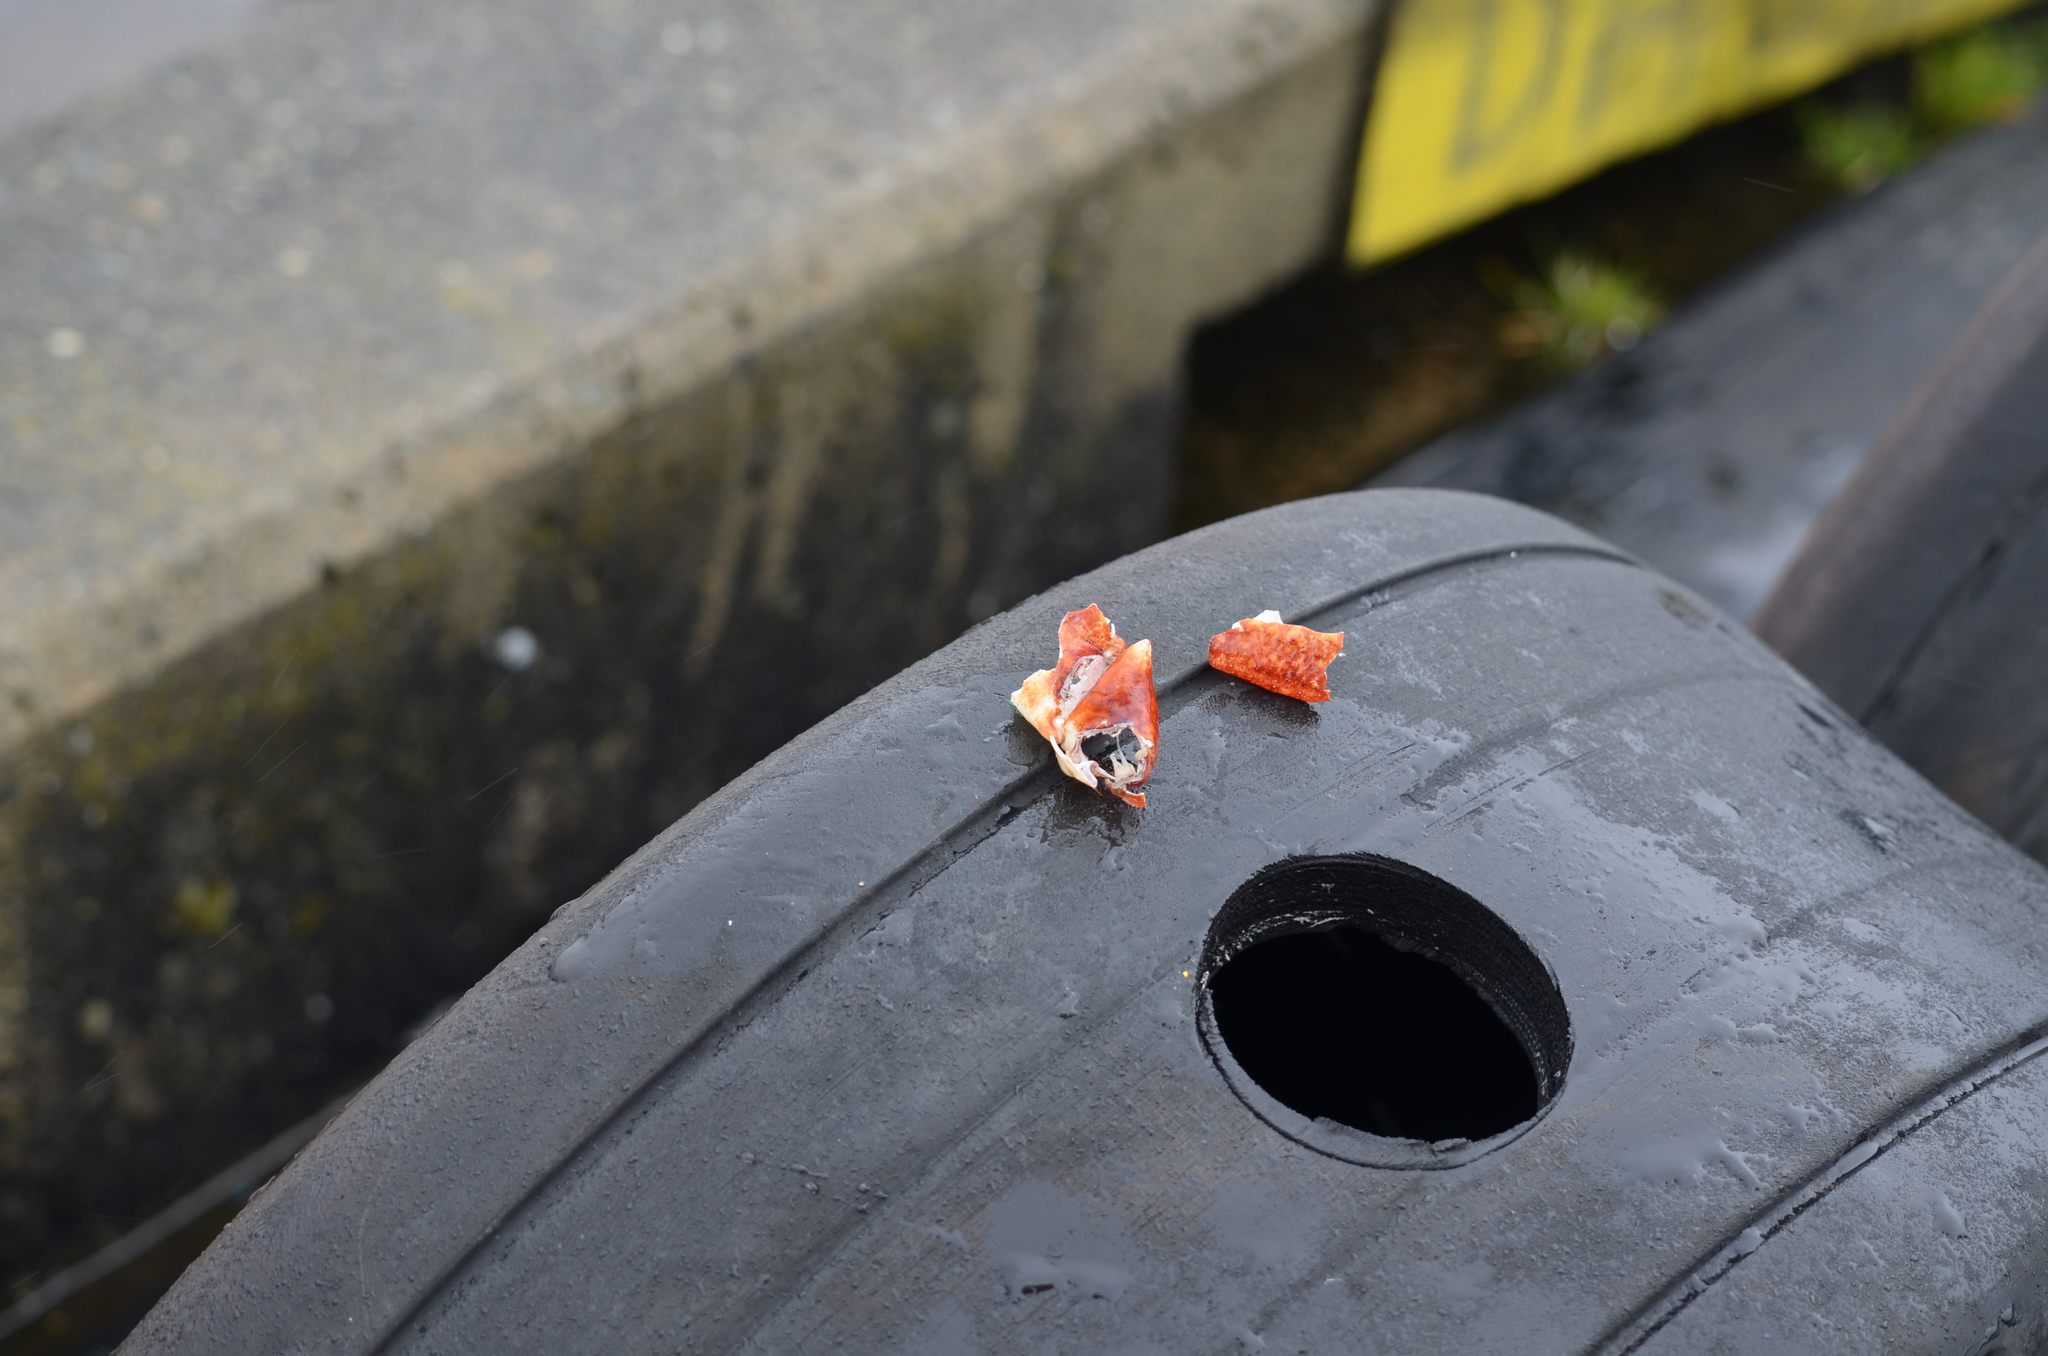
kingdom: Animalia
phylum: Arthropoda
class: Malacostraca
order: Decapoda
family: Cancridae
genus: Cancer
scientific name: Cancer productus
